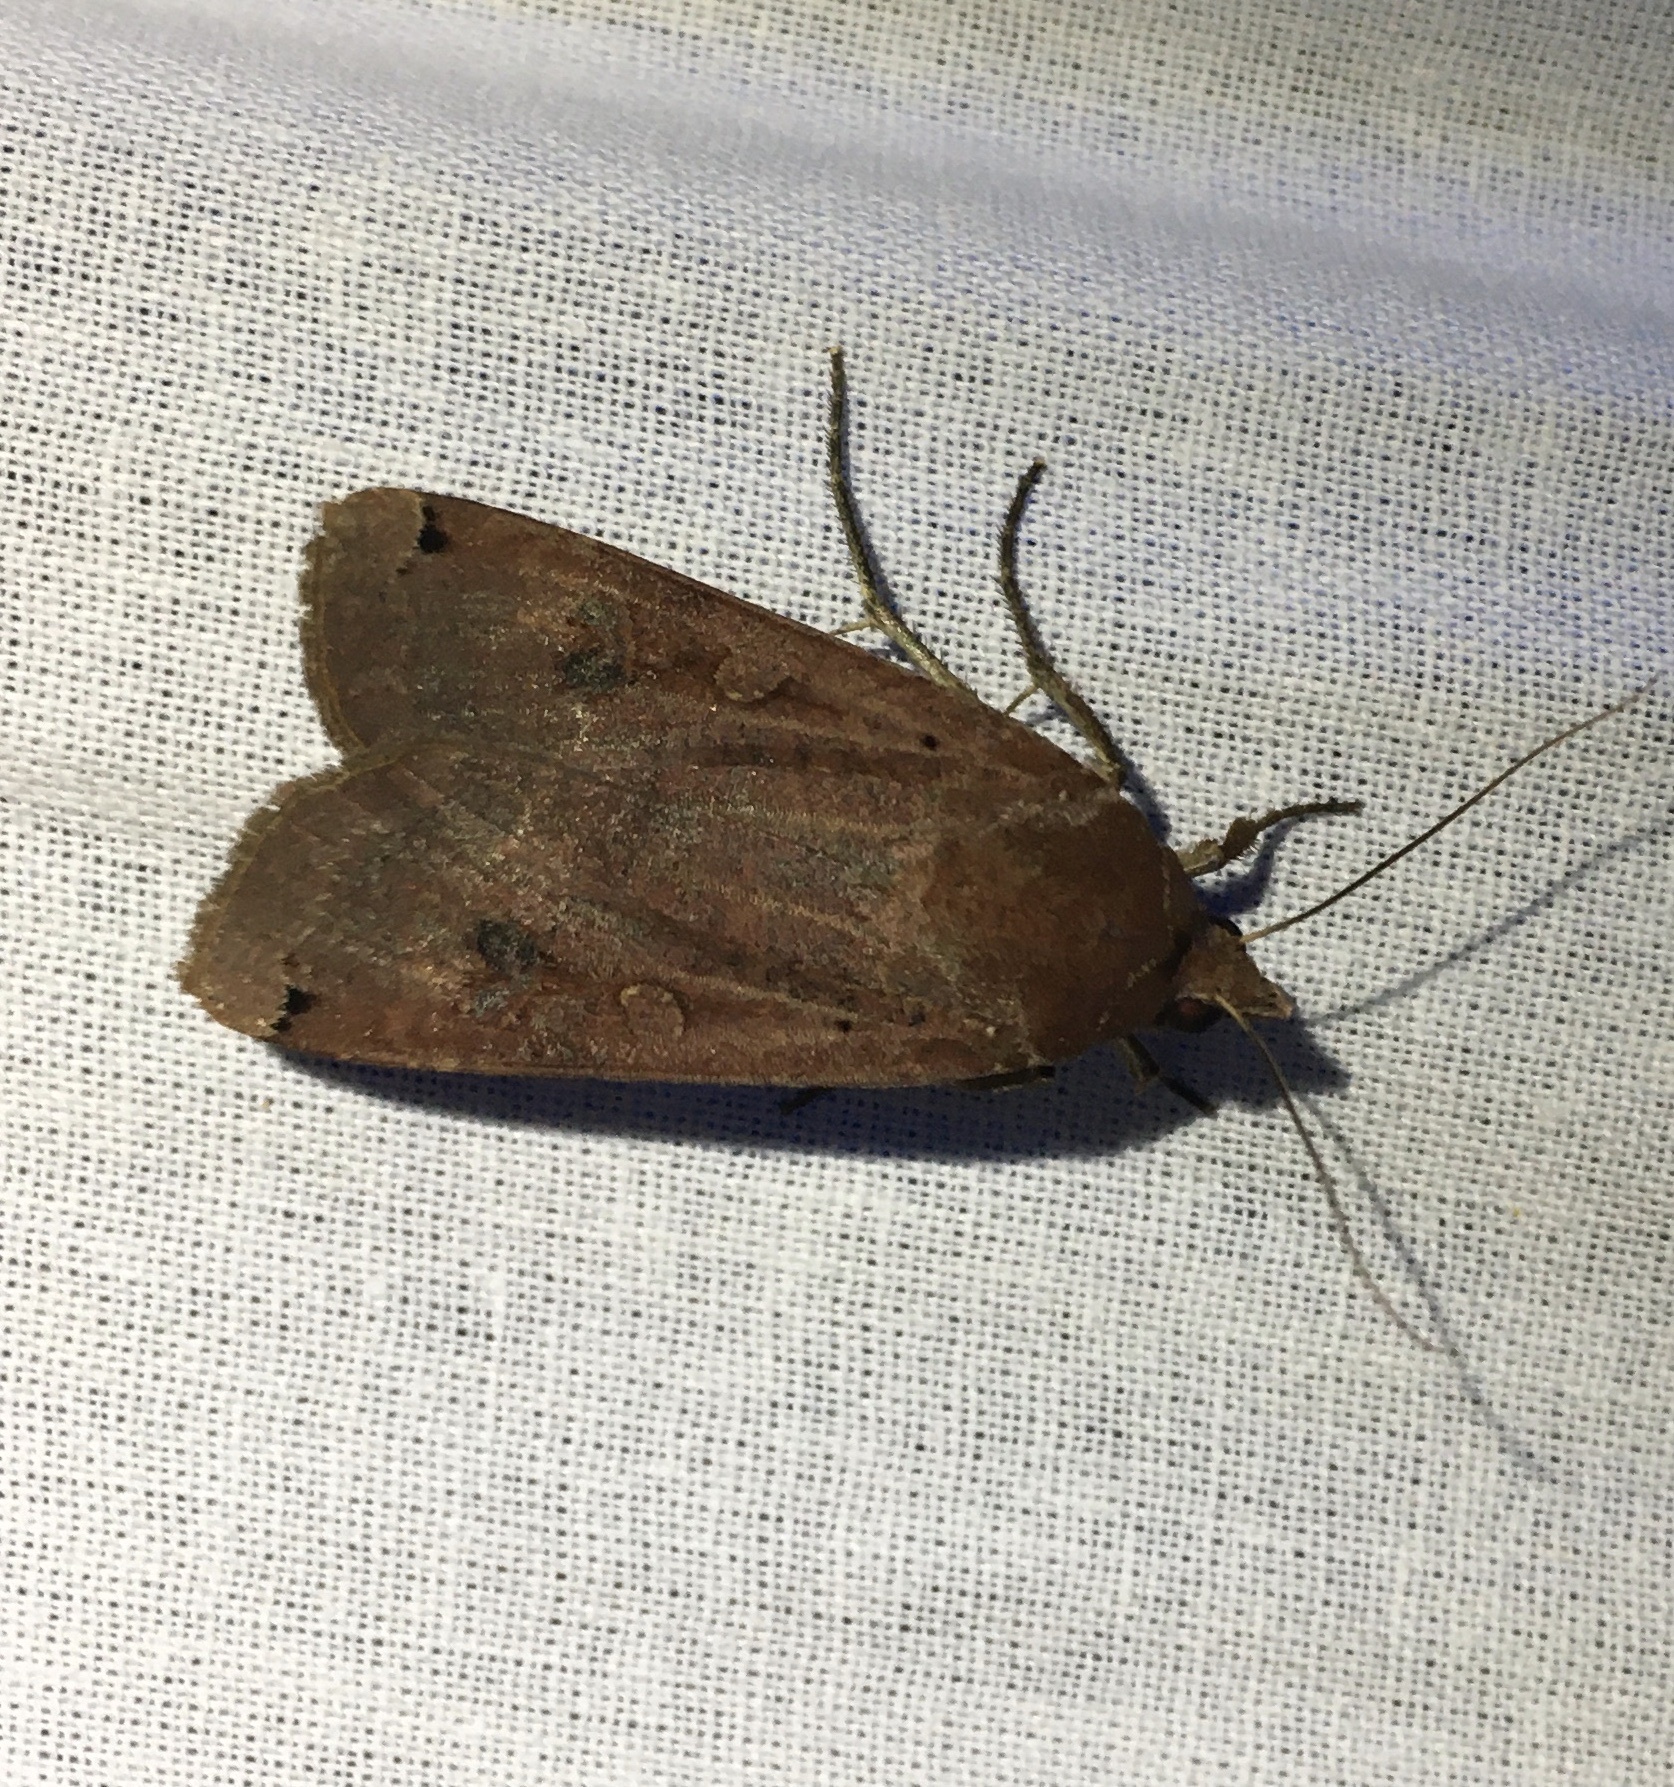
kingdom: Animalia
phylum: Arthropoda
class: Insecta
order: Lepidoptera
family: Noctuidae
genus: Noctua
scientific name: Noctua pronuba
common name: Large yellow underwing
